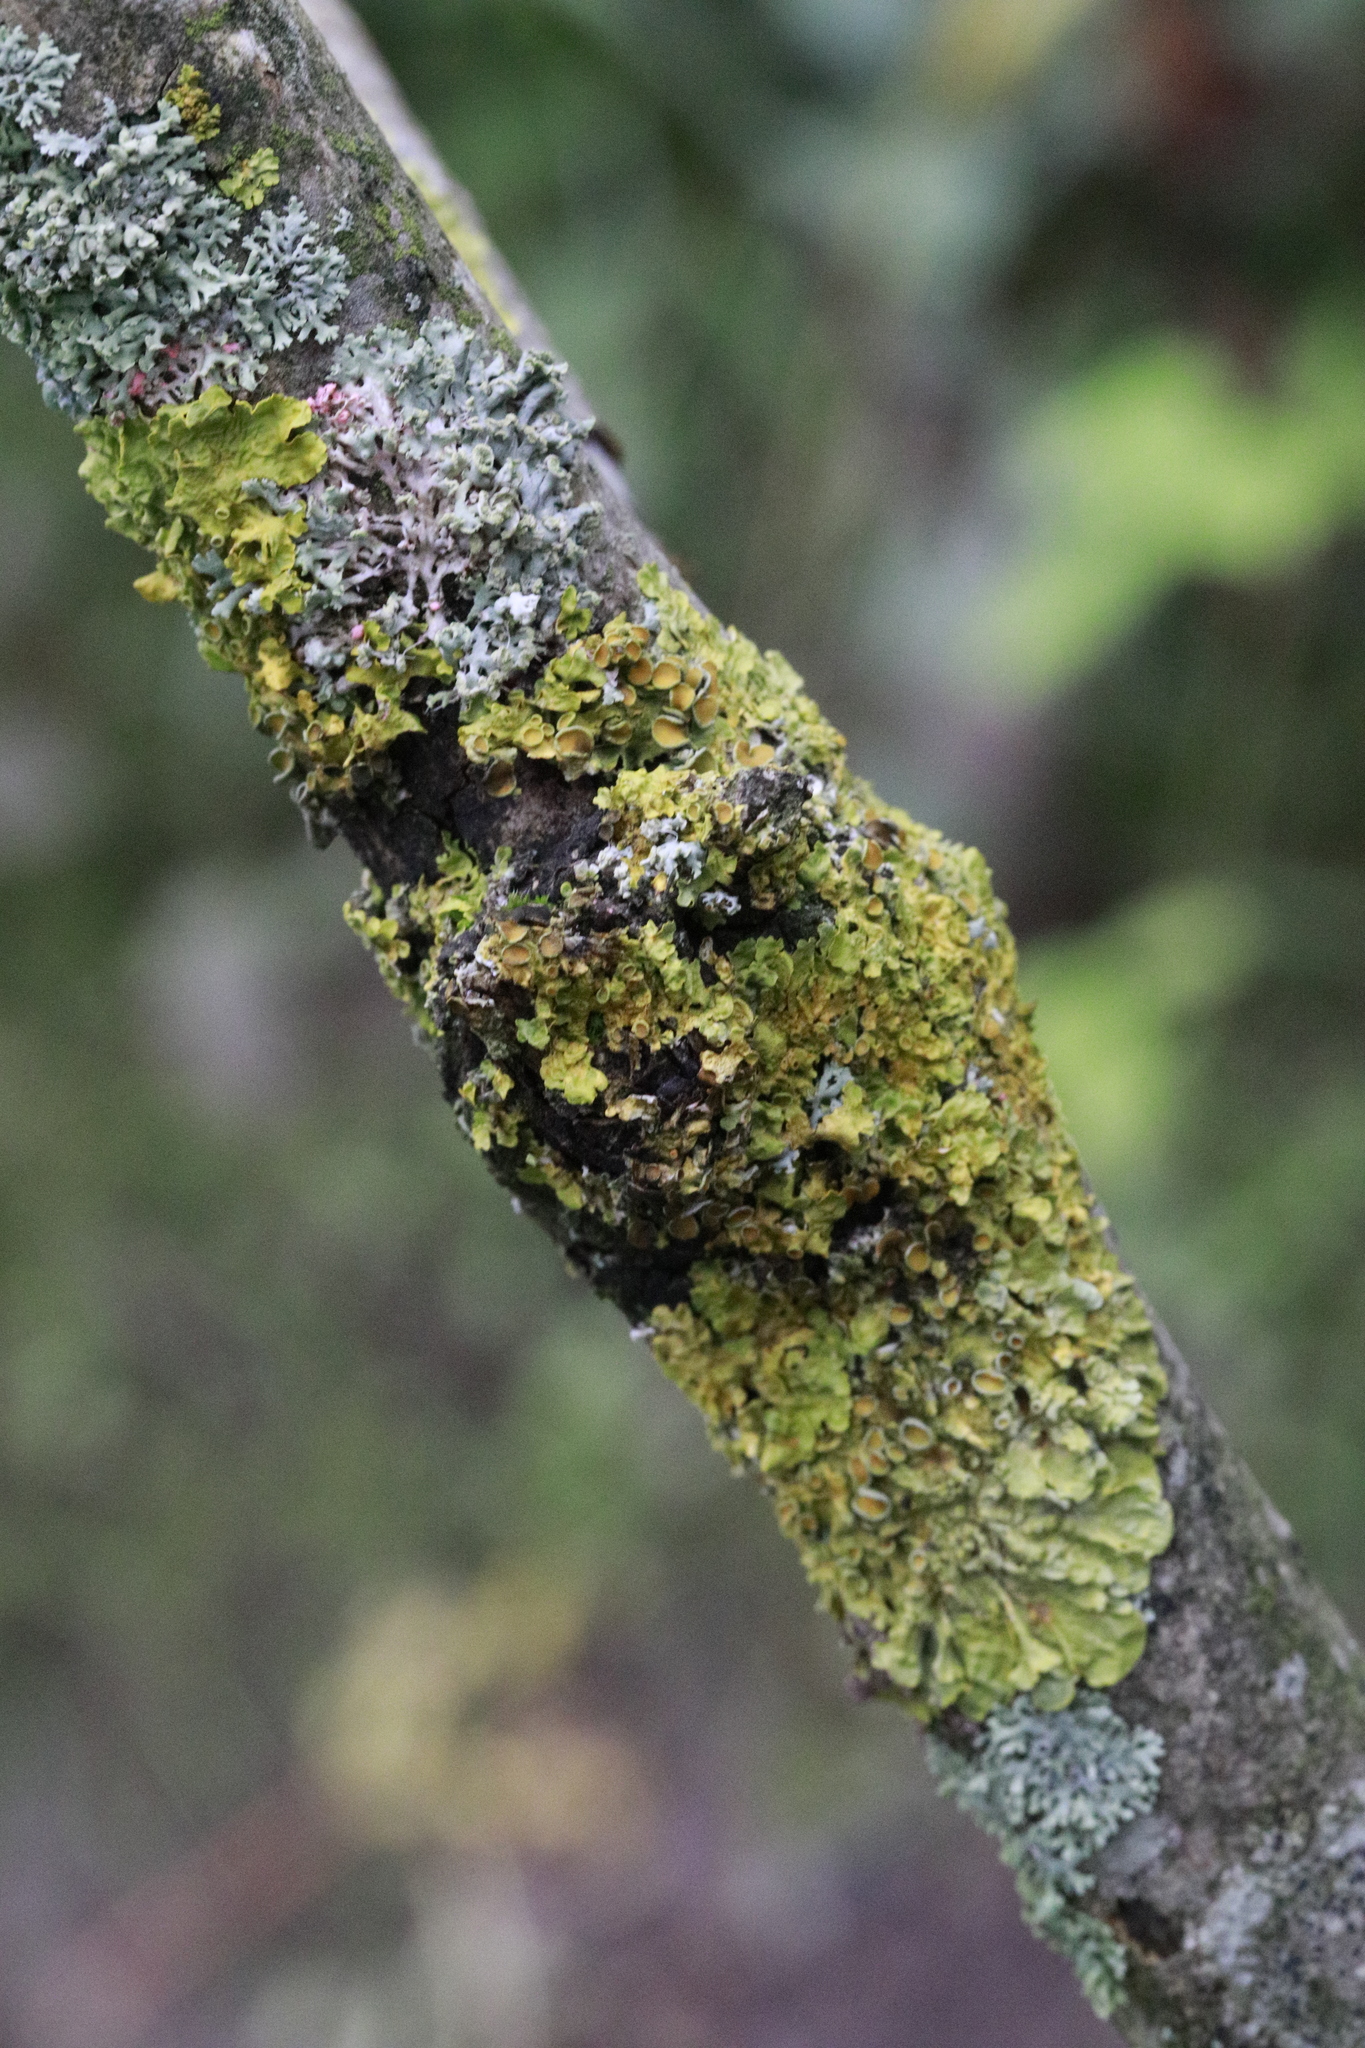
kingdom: Fungi
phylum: Ascomycota
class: Lecanoromycetes
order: Teloschistales
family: Teloschistaceae
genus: Xanthoria
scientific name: Xanthoria parietina
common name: Common orange lichen
